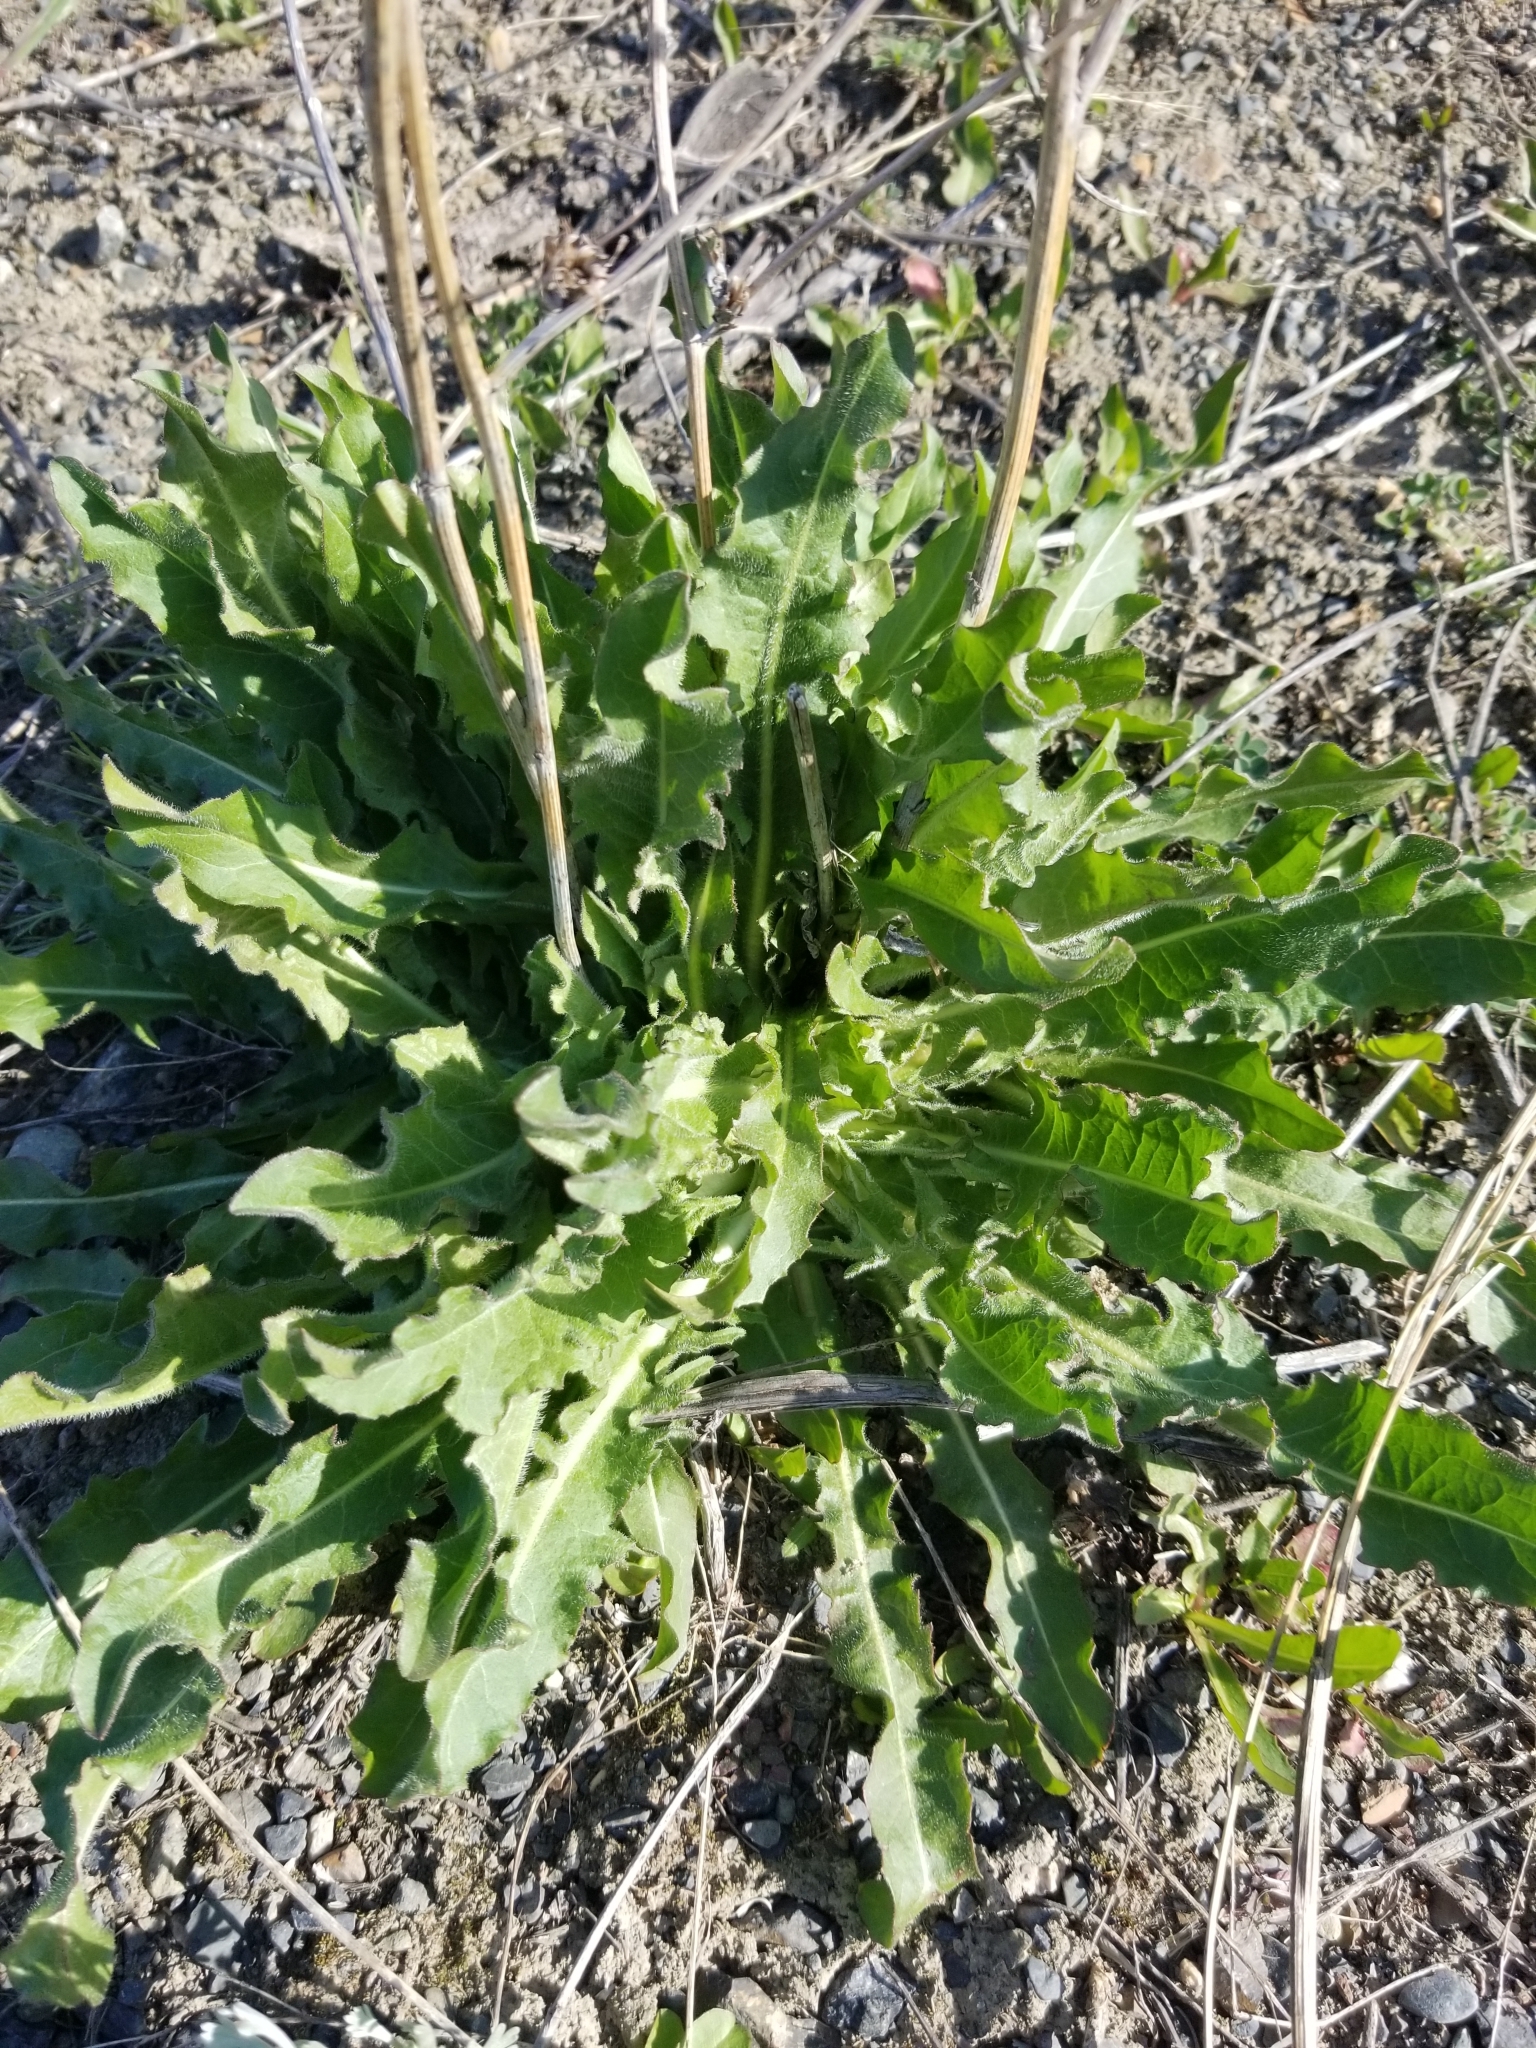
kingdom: Plantae
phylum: Tracheophyta
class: Magnoliopsida
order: Asterales
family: Asteraceae
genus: Cichorium
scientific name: Cichorium intybus
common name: Chicory
